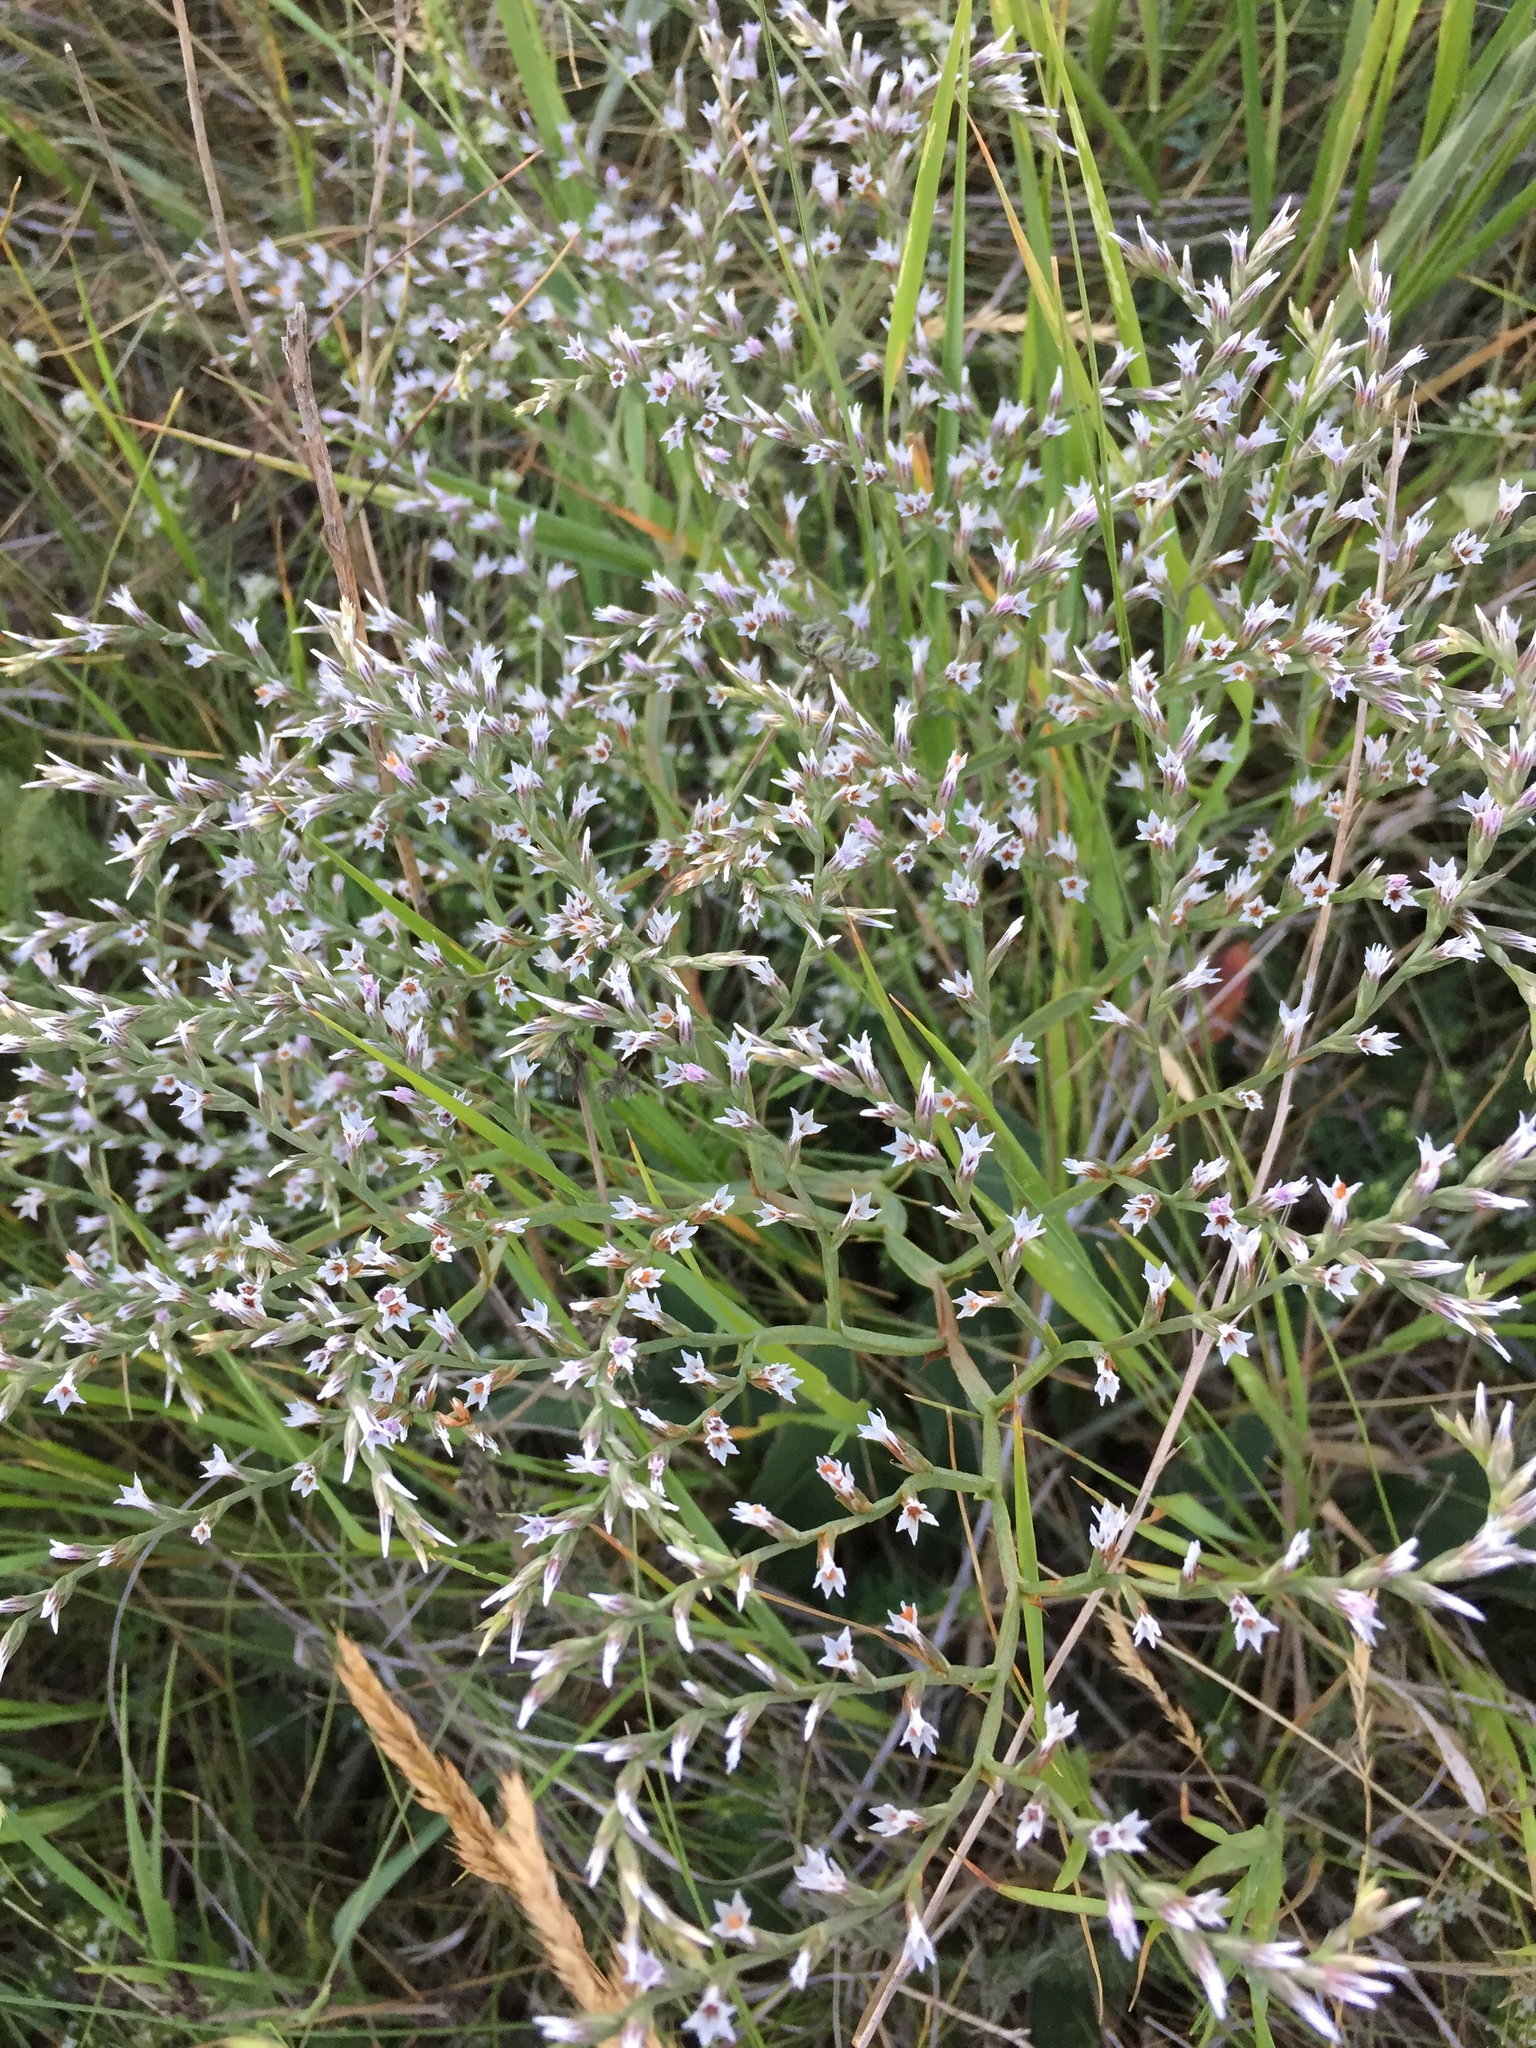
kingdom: Plantae
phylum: Tracheophyta
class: Magnoliopsida
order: Caryophyllales
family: Plumbaginaceae
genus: Goniolimon
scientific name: Goniolimon tataricum
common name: Statice
